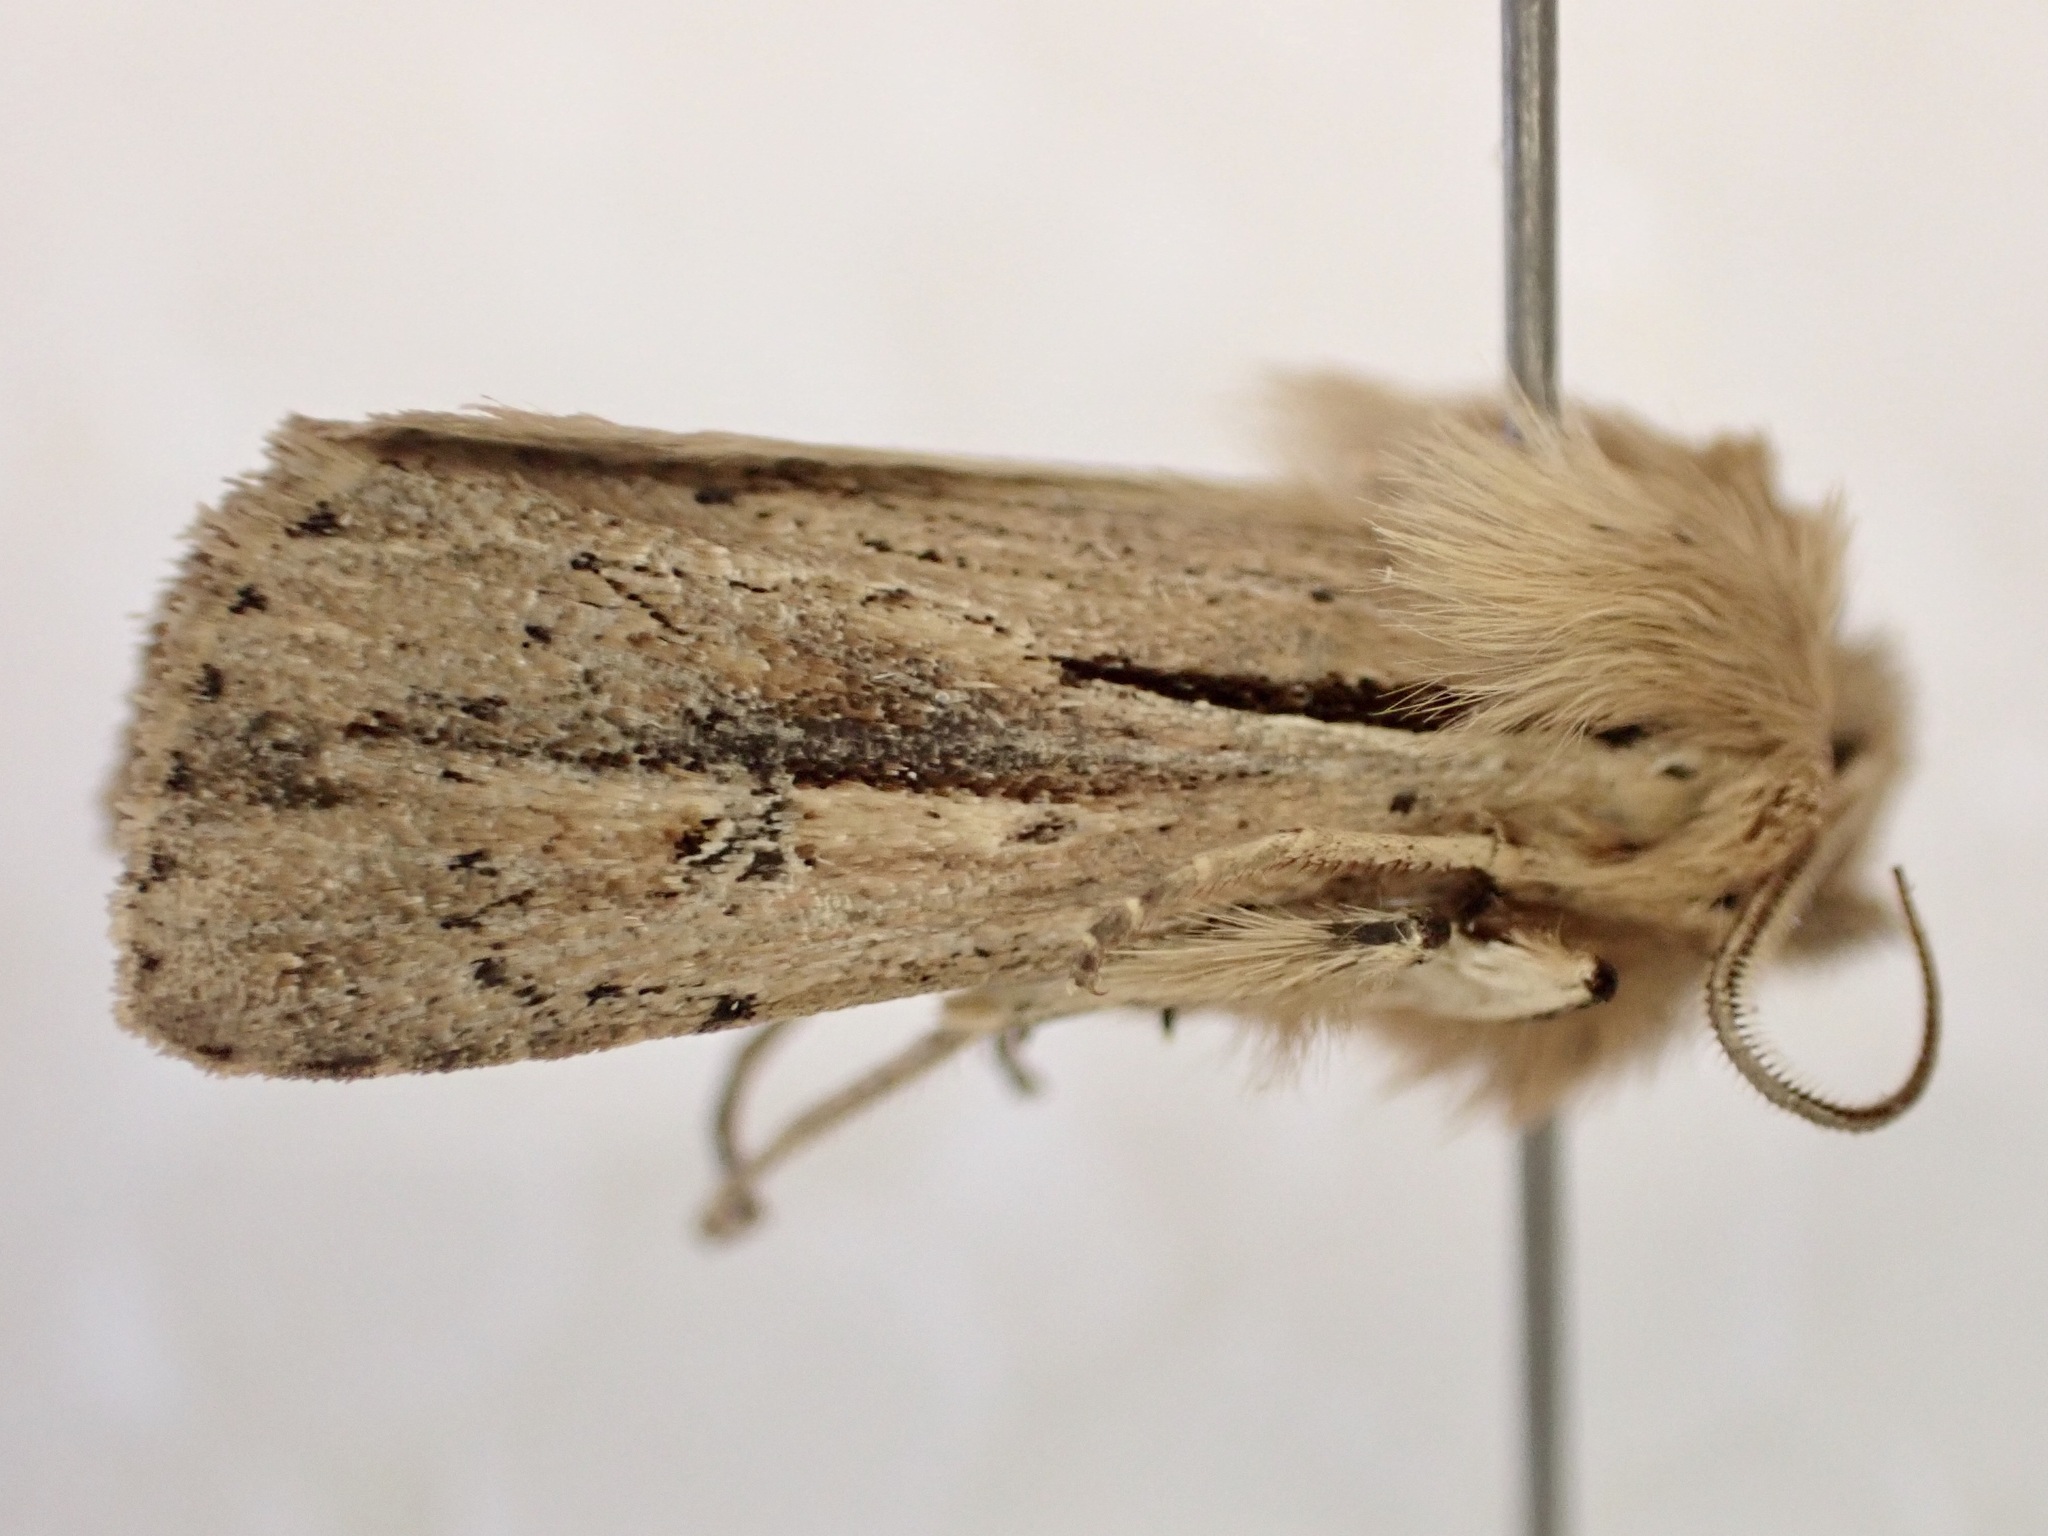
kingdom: Animalia
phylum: Arthropoda
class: Insecta
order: Lepidoptera
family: Noctuidae
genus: Ichneutica
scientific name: Ichneutica propria
